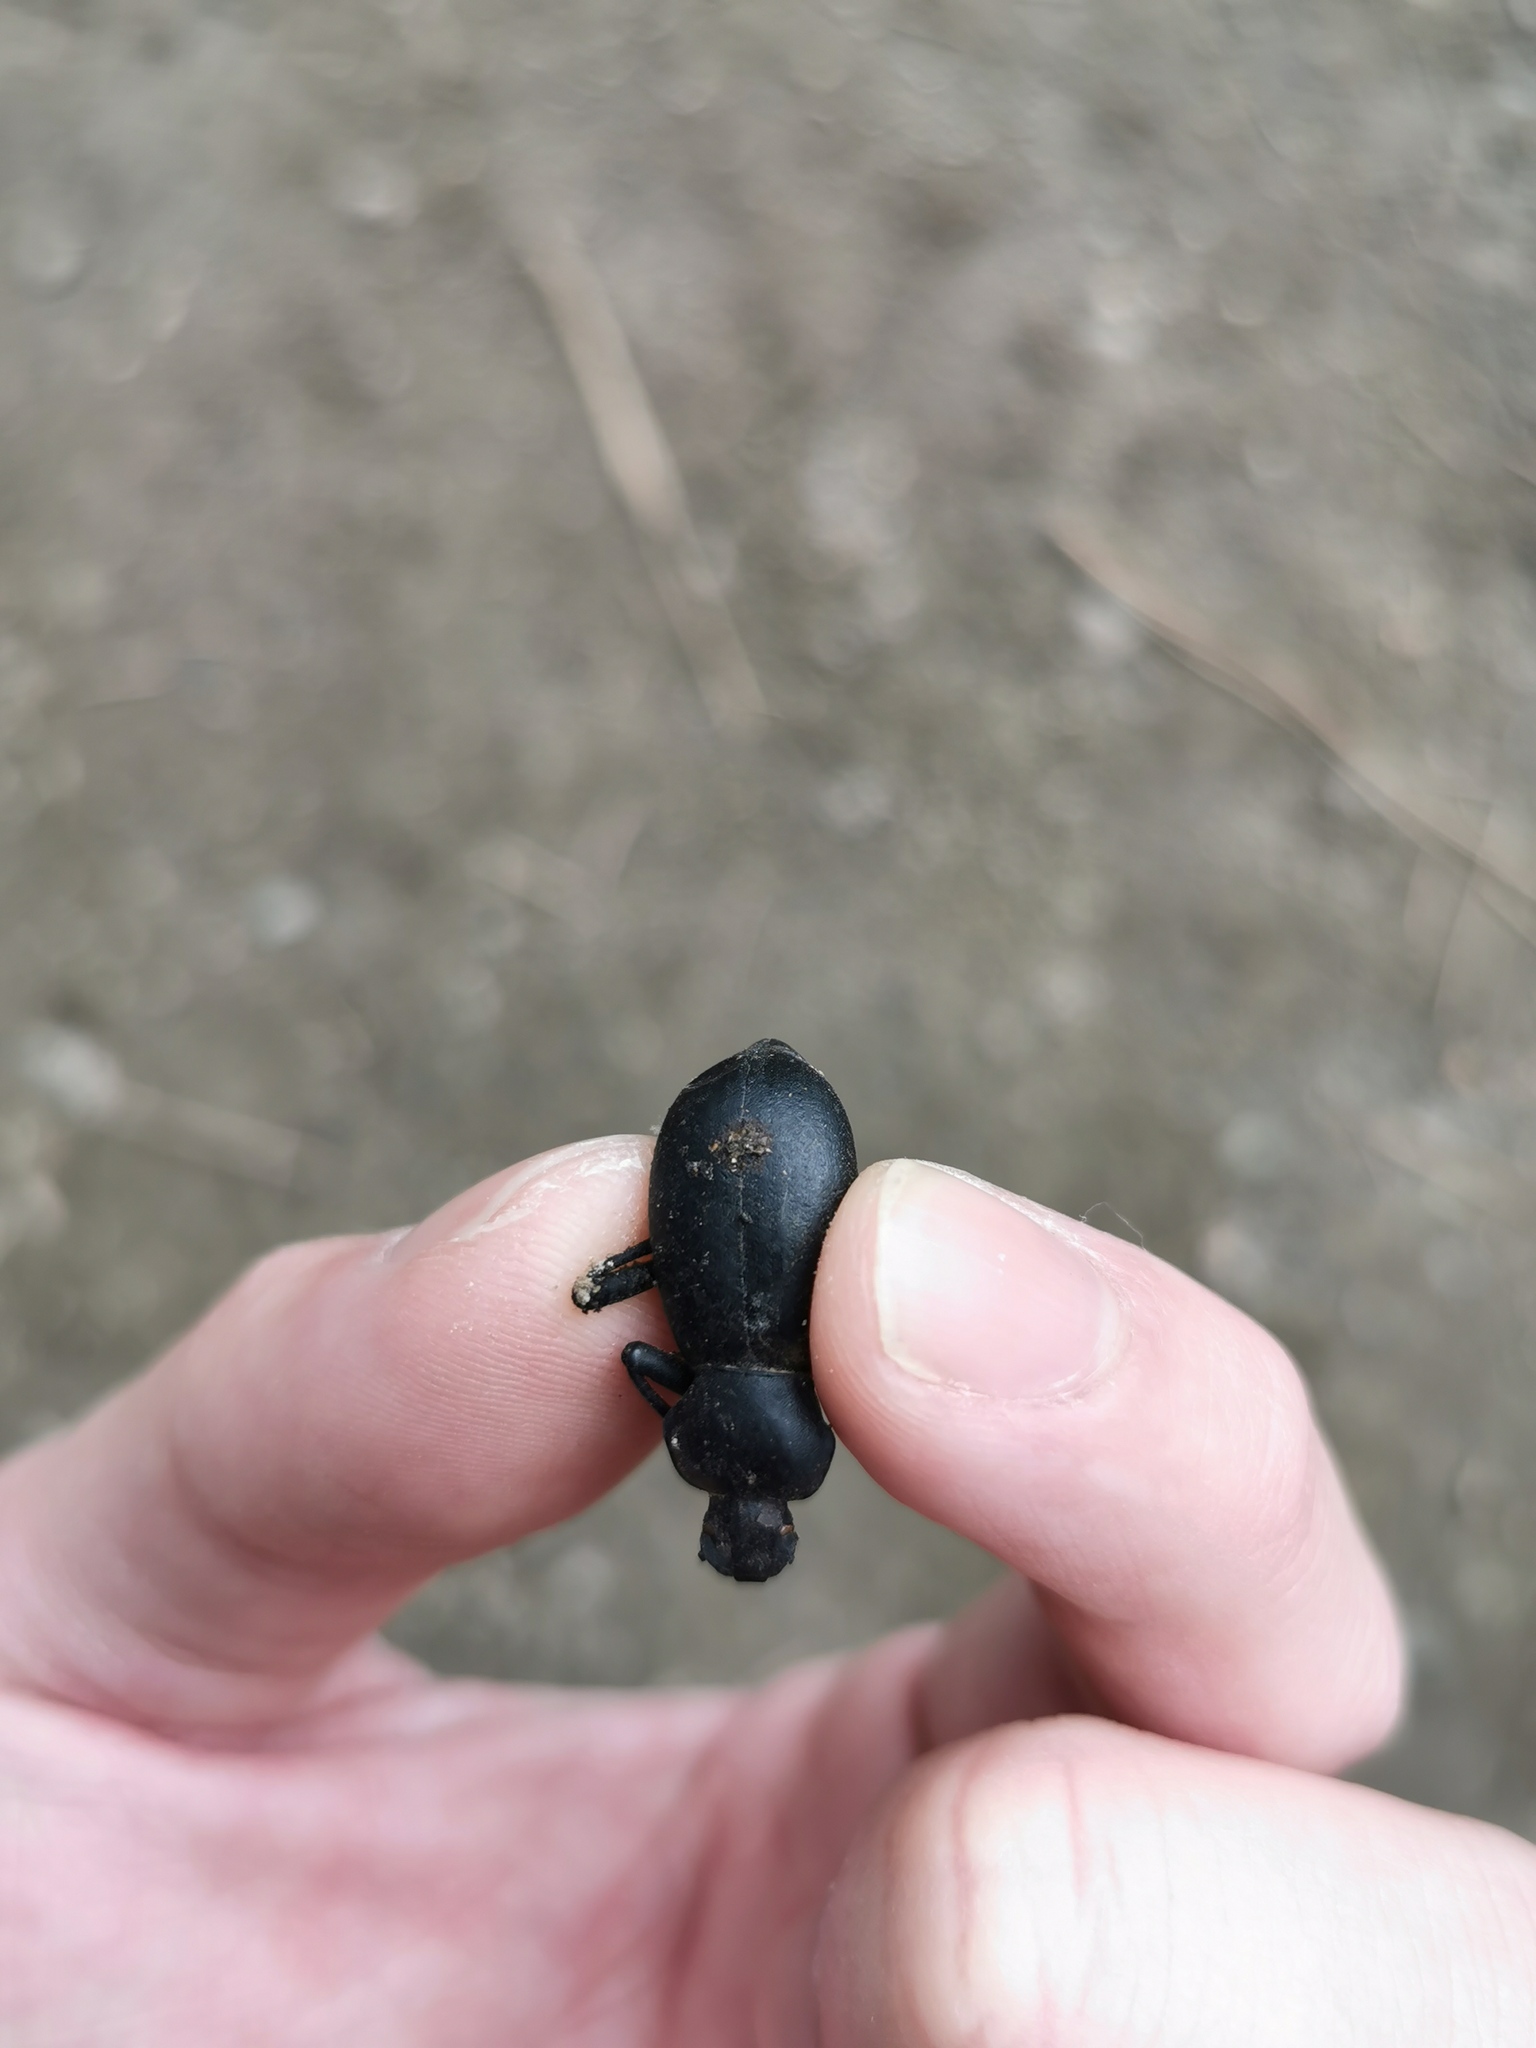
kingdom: Animalia
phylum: Arthropoda
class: Insecta
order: Coleoptera
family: Tenebrionidae
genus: Coelocnemis
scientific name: Coelocnemis dilaticollis
